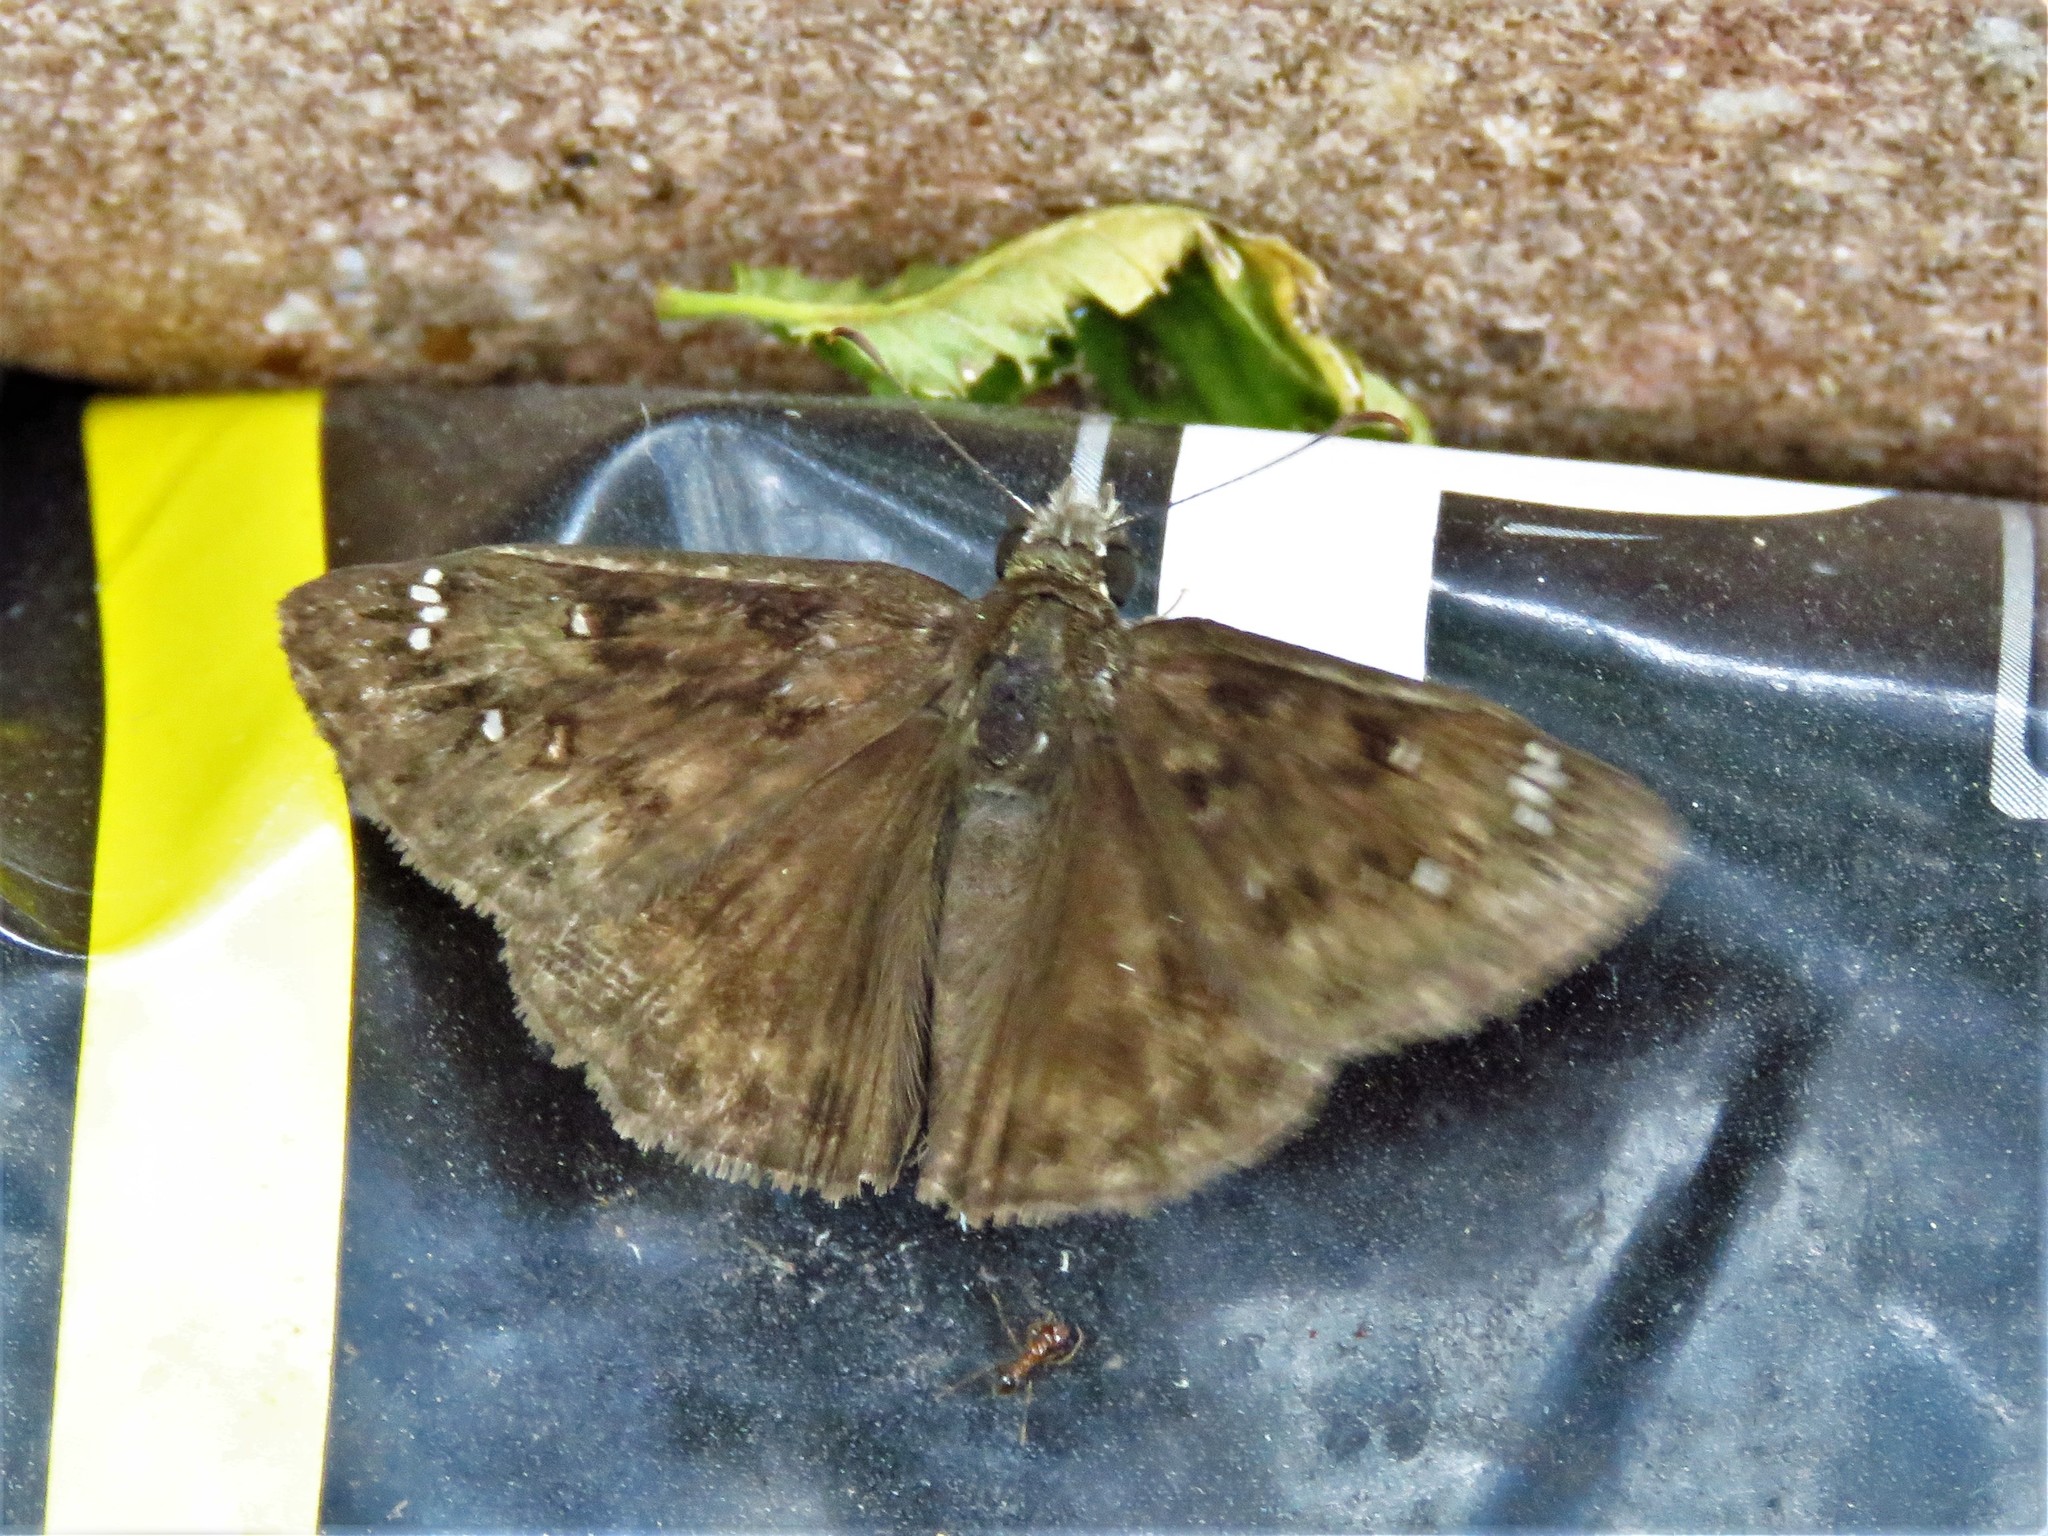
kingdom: Animalia
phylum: Arthropoda
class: Insecta
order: Lepidoptera
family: Hesperiidae
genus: Erynnis
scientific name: Erynnis horatius
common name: Horace's duskywing
